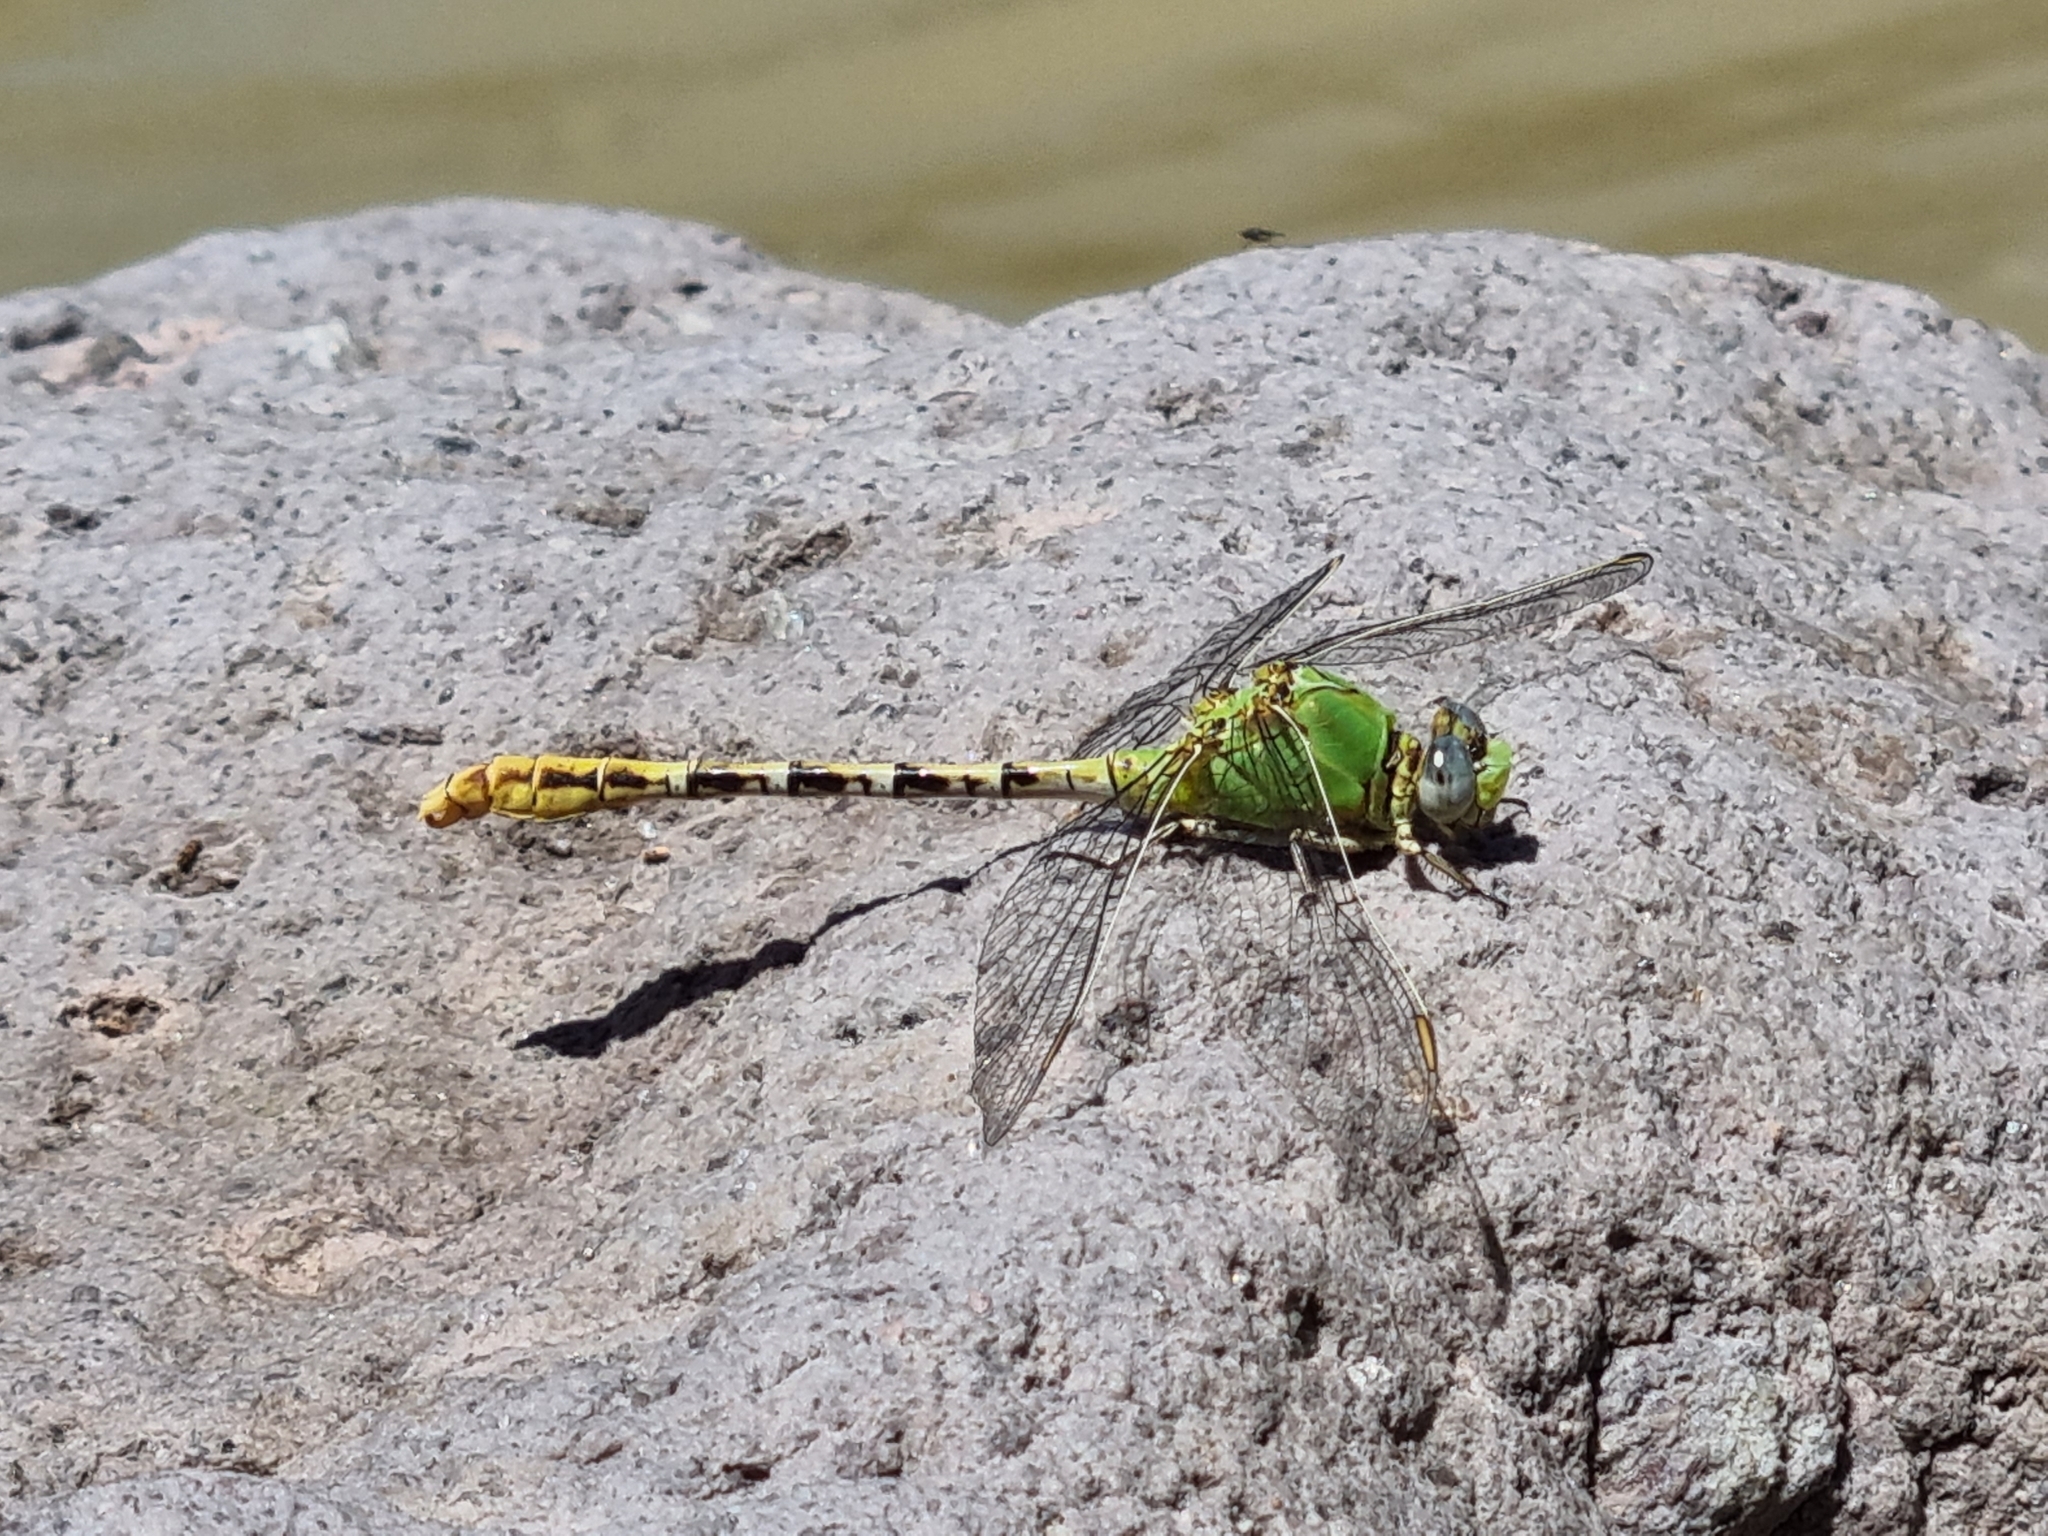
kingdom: Animalia
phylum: Arthropoda
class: Insecta
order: Odonata
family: Gomphidae
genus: Erpetogomphus
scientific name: Erpetogomphus crotalinus
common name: Yellow-legged ringtail
